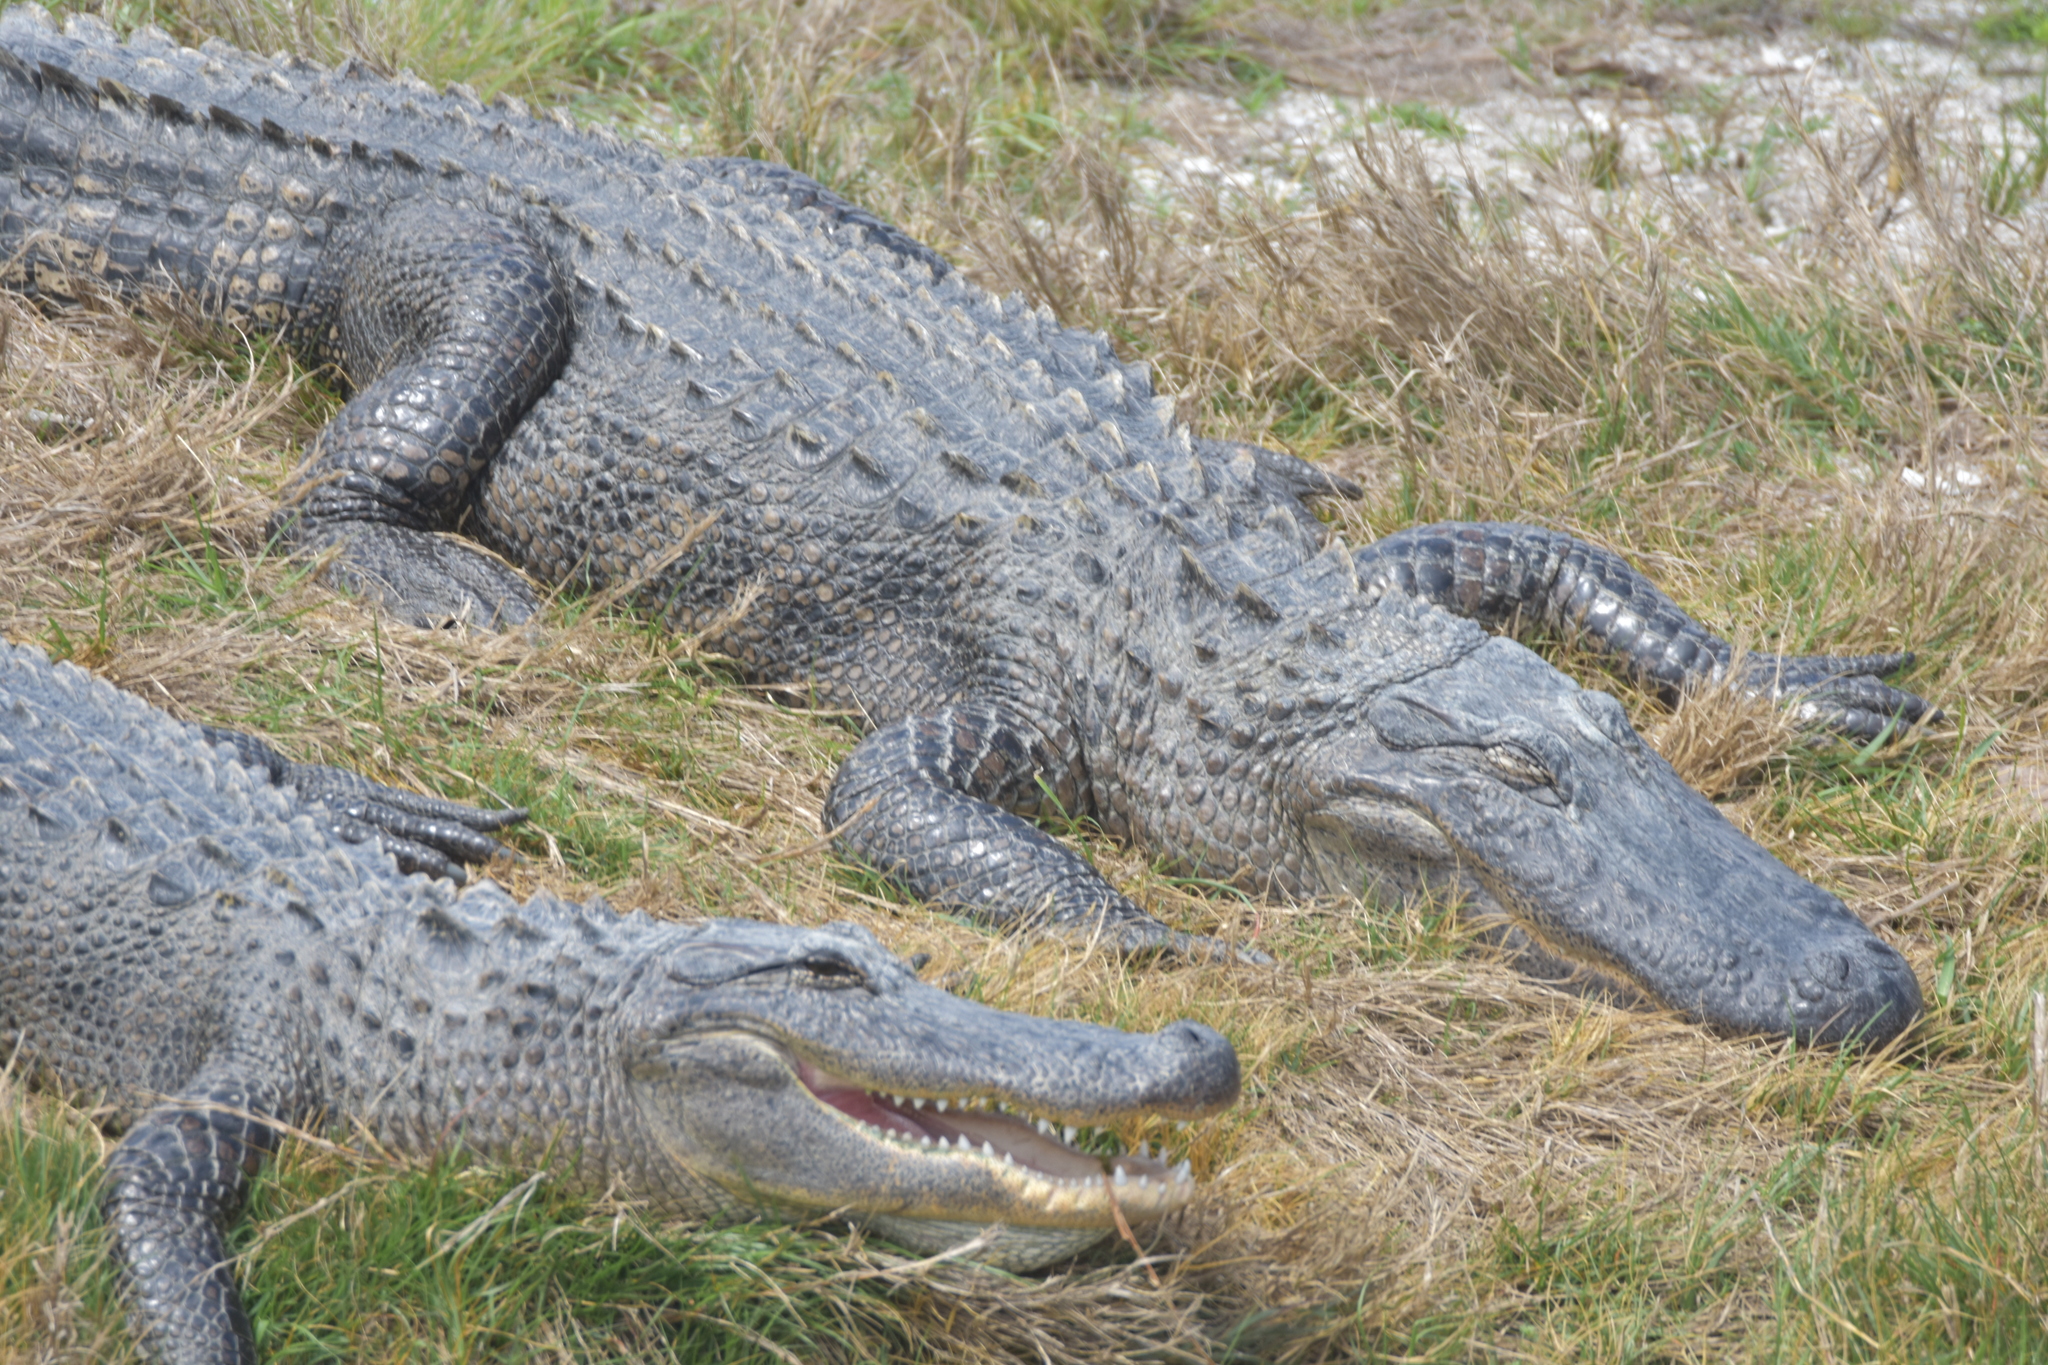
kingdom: Animalia
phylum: Chordata
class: Crocodylia
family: Alligatoridae
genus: Alligator
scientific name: Alligator mississippiensis
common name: American alligator
